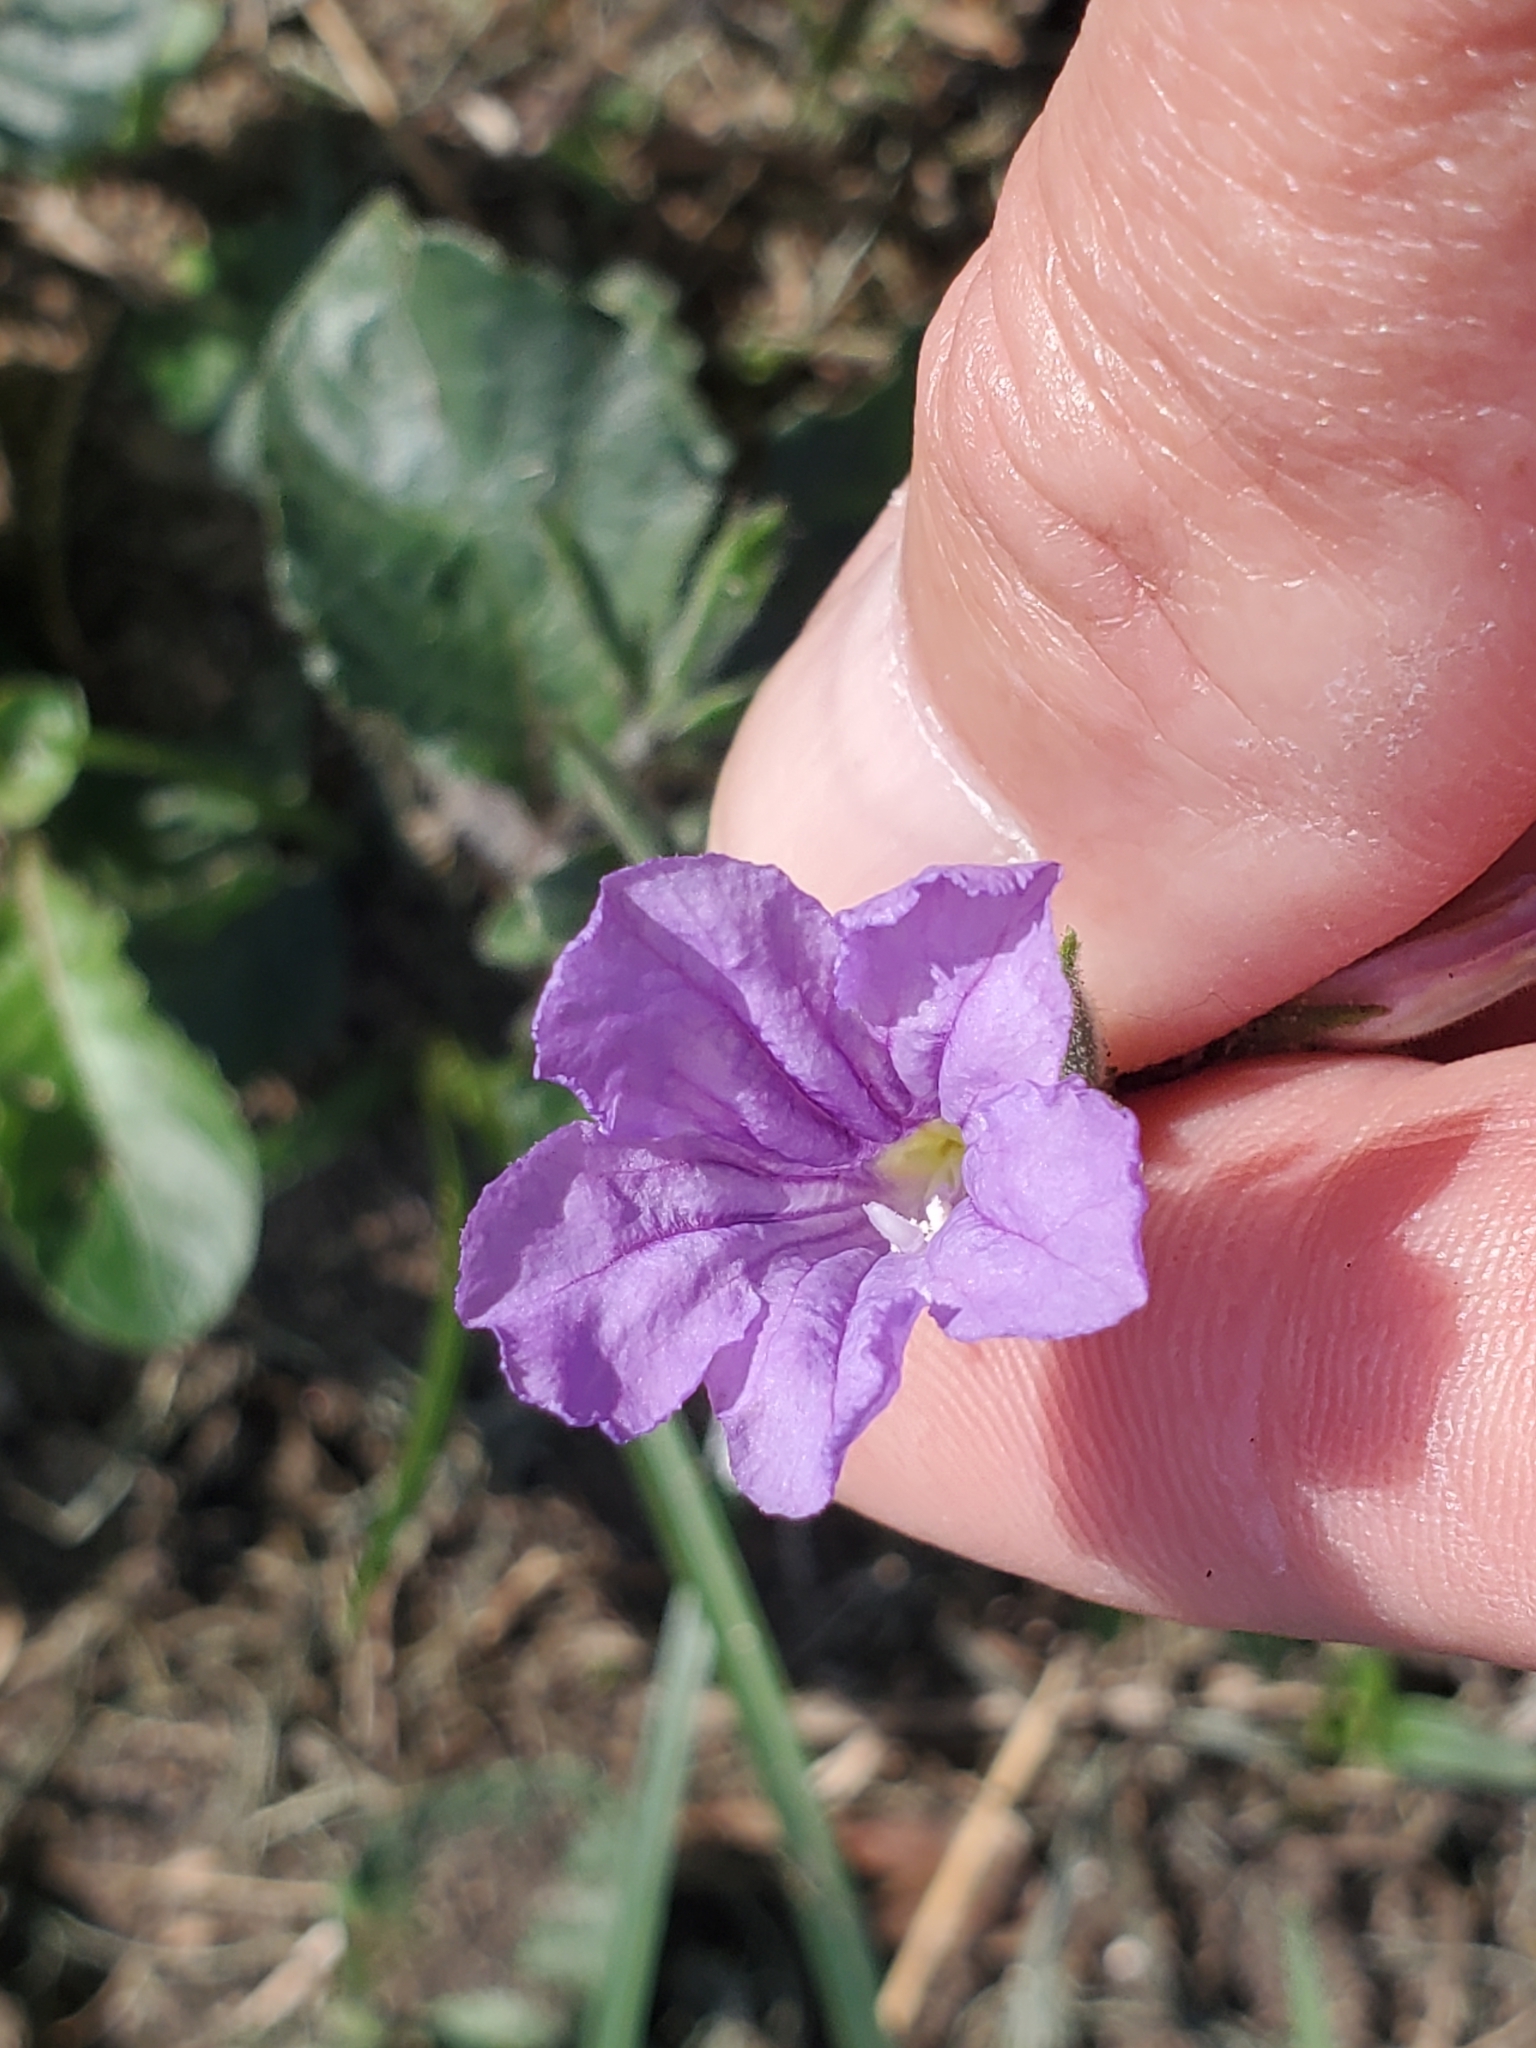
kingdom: Plantae
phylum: Tracheophyta
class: Magnoliopsida
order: Lamiales
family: Acanthaceae
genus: Ruellia
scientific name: Ruellia ciliatiflora
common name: Hairyflower wild petunia
